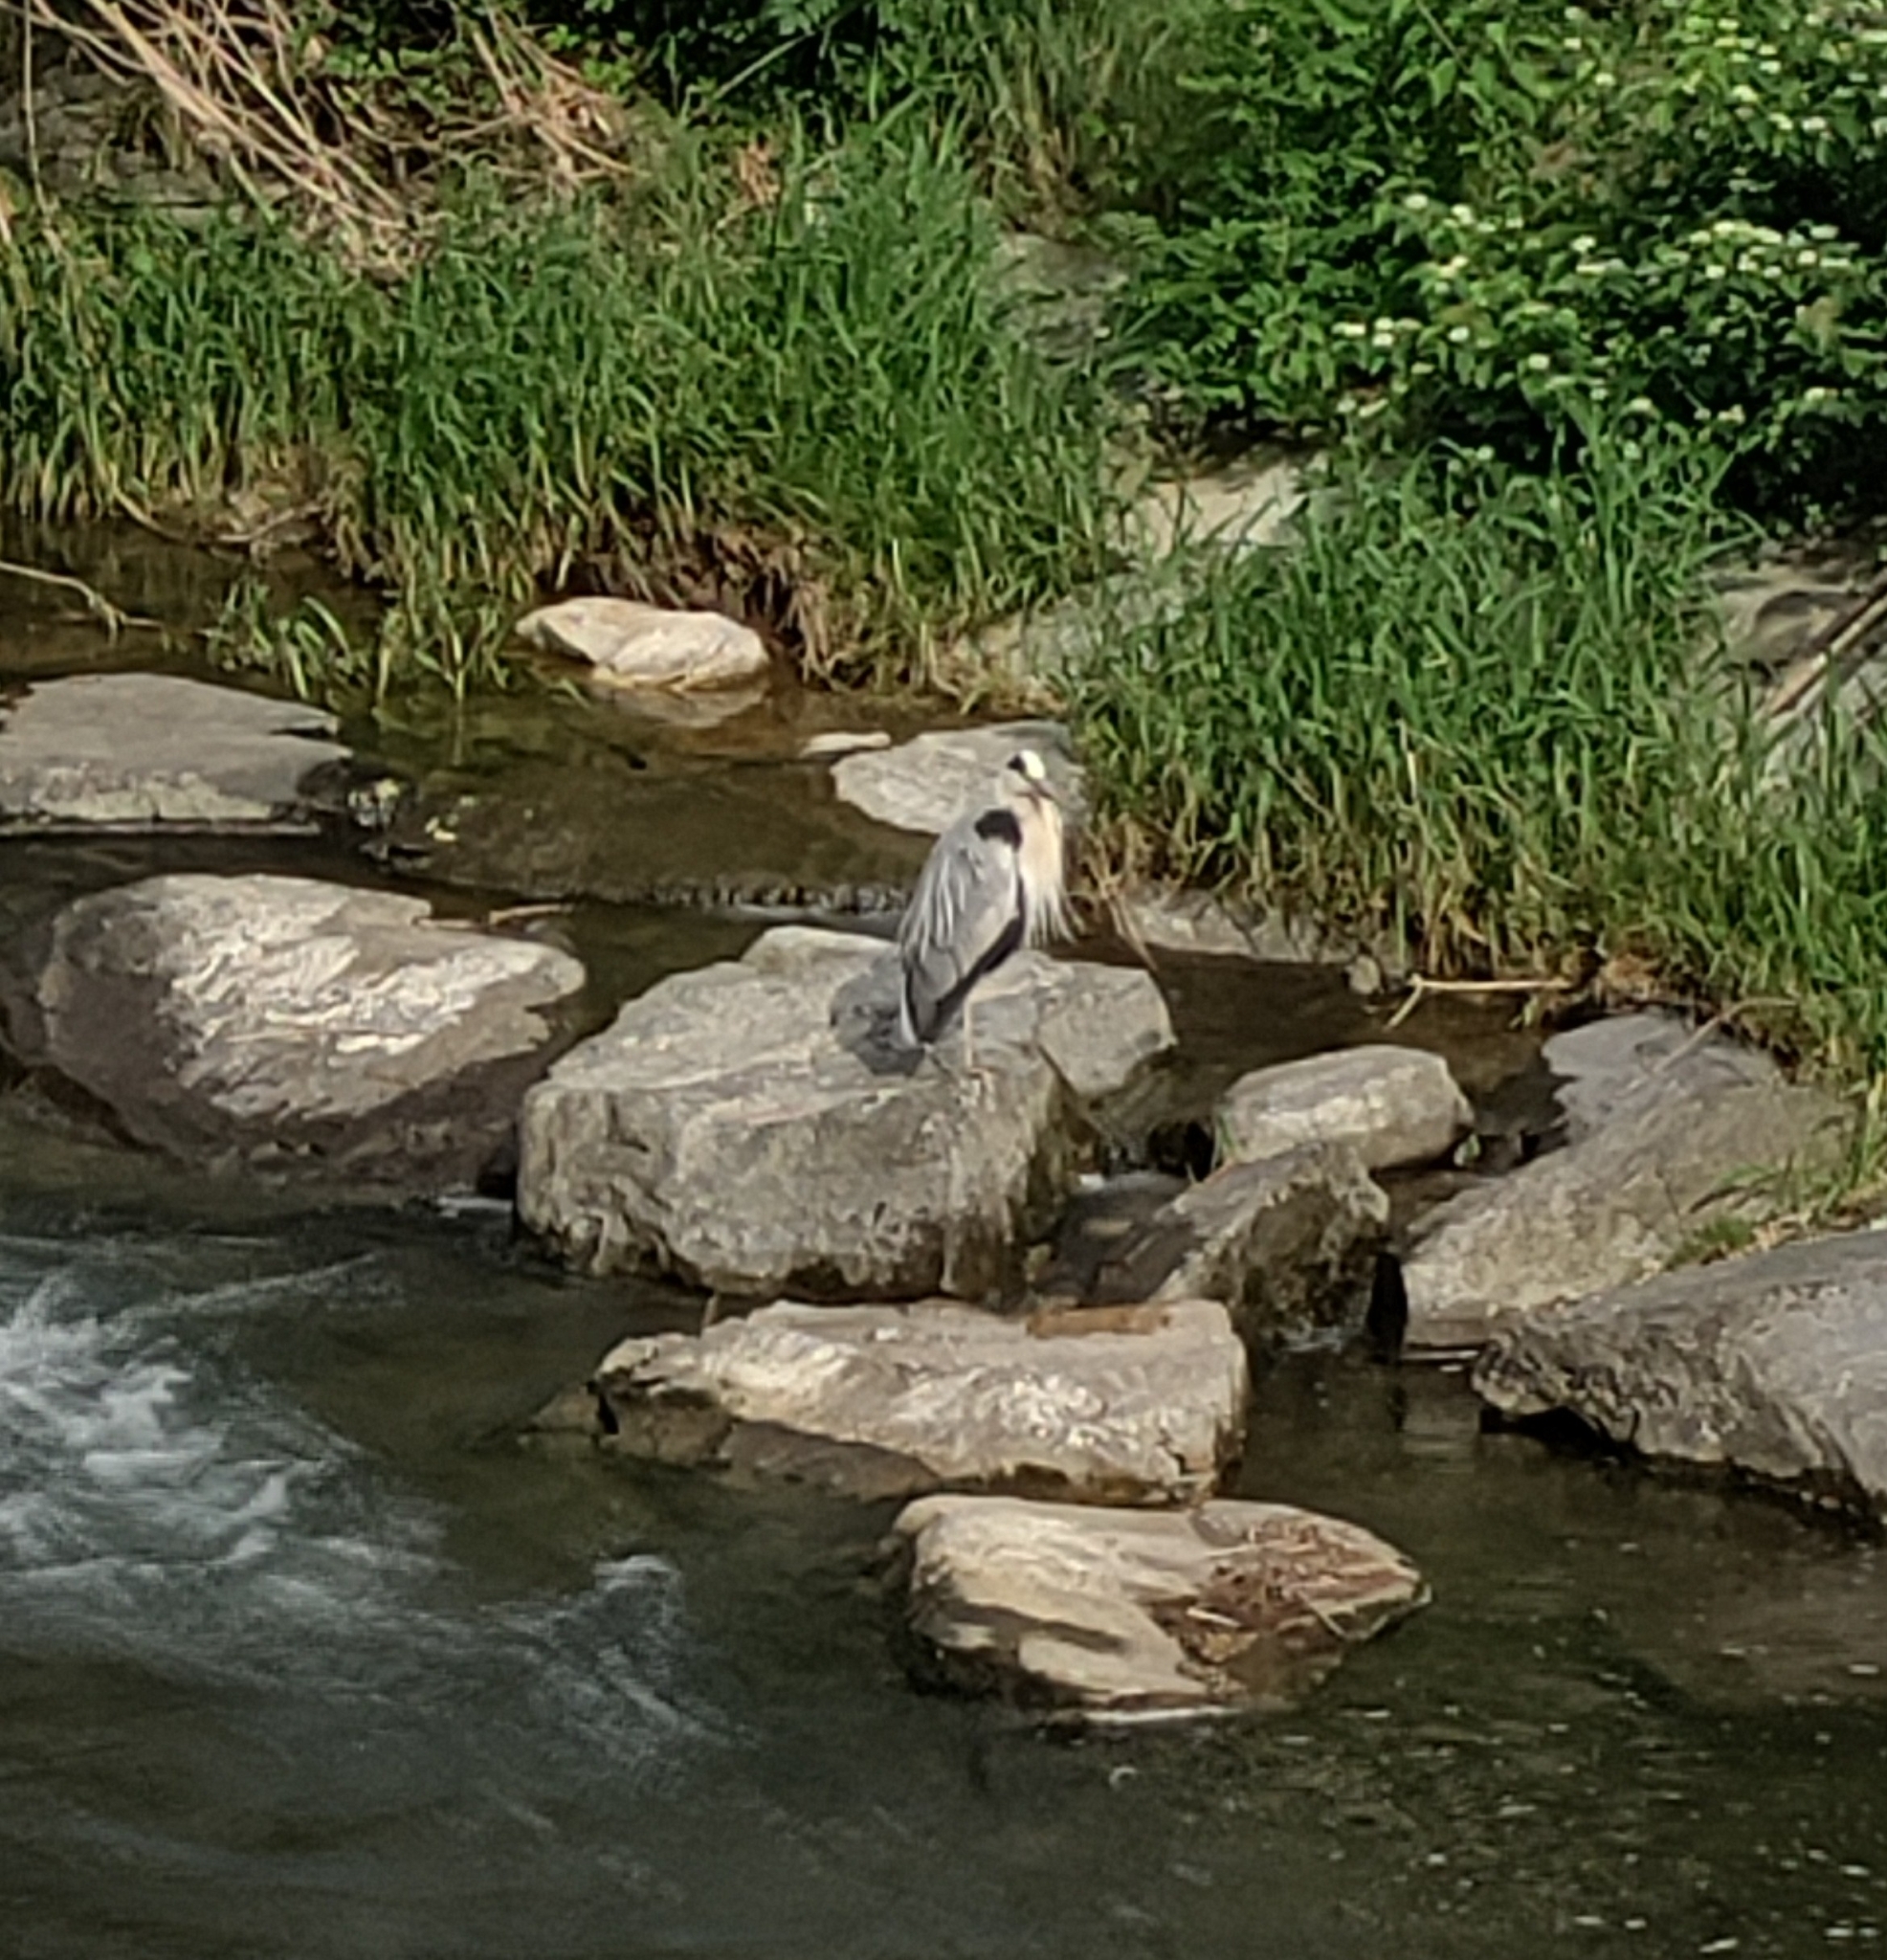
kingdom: Animalia
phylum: Chordata
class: Aves
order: Pelecaniformes
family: Ardeidae
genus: Ardea
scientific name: Ardea cinerea
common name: Grey heron
